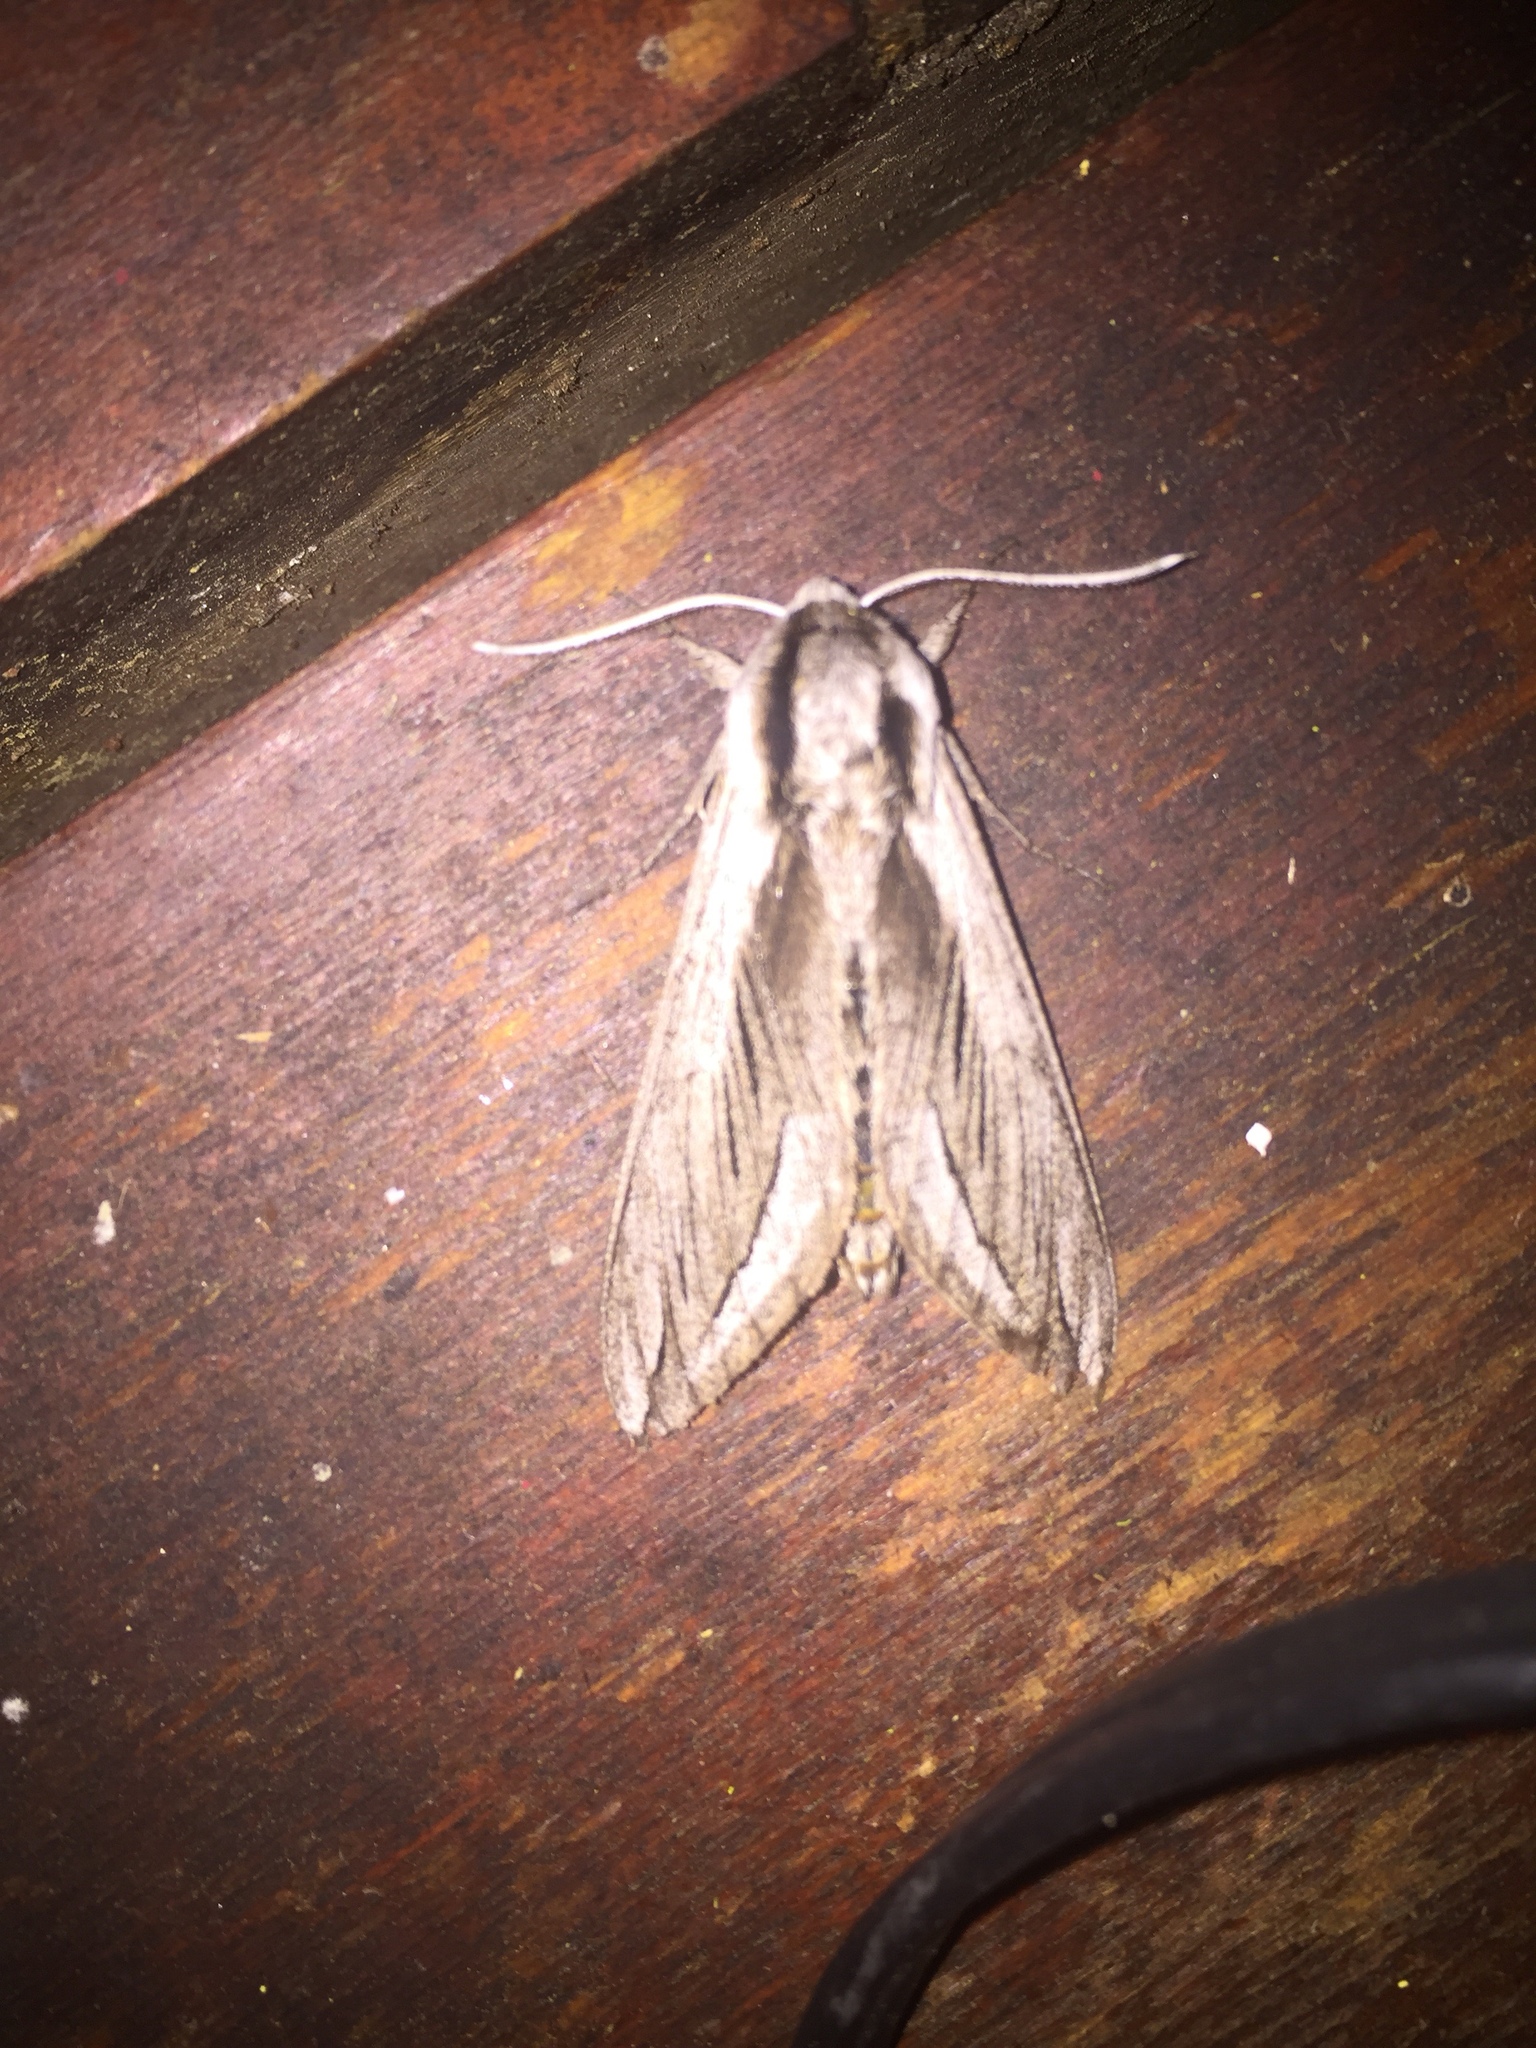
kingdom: Animalia
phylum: Arthropoda
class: Insecta
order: Lepidoptera
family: Sphingidae
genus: Sphinx
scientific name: Sphinx vashti
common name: Snowberry sphinx
